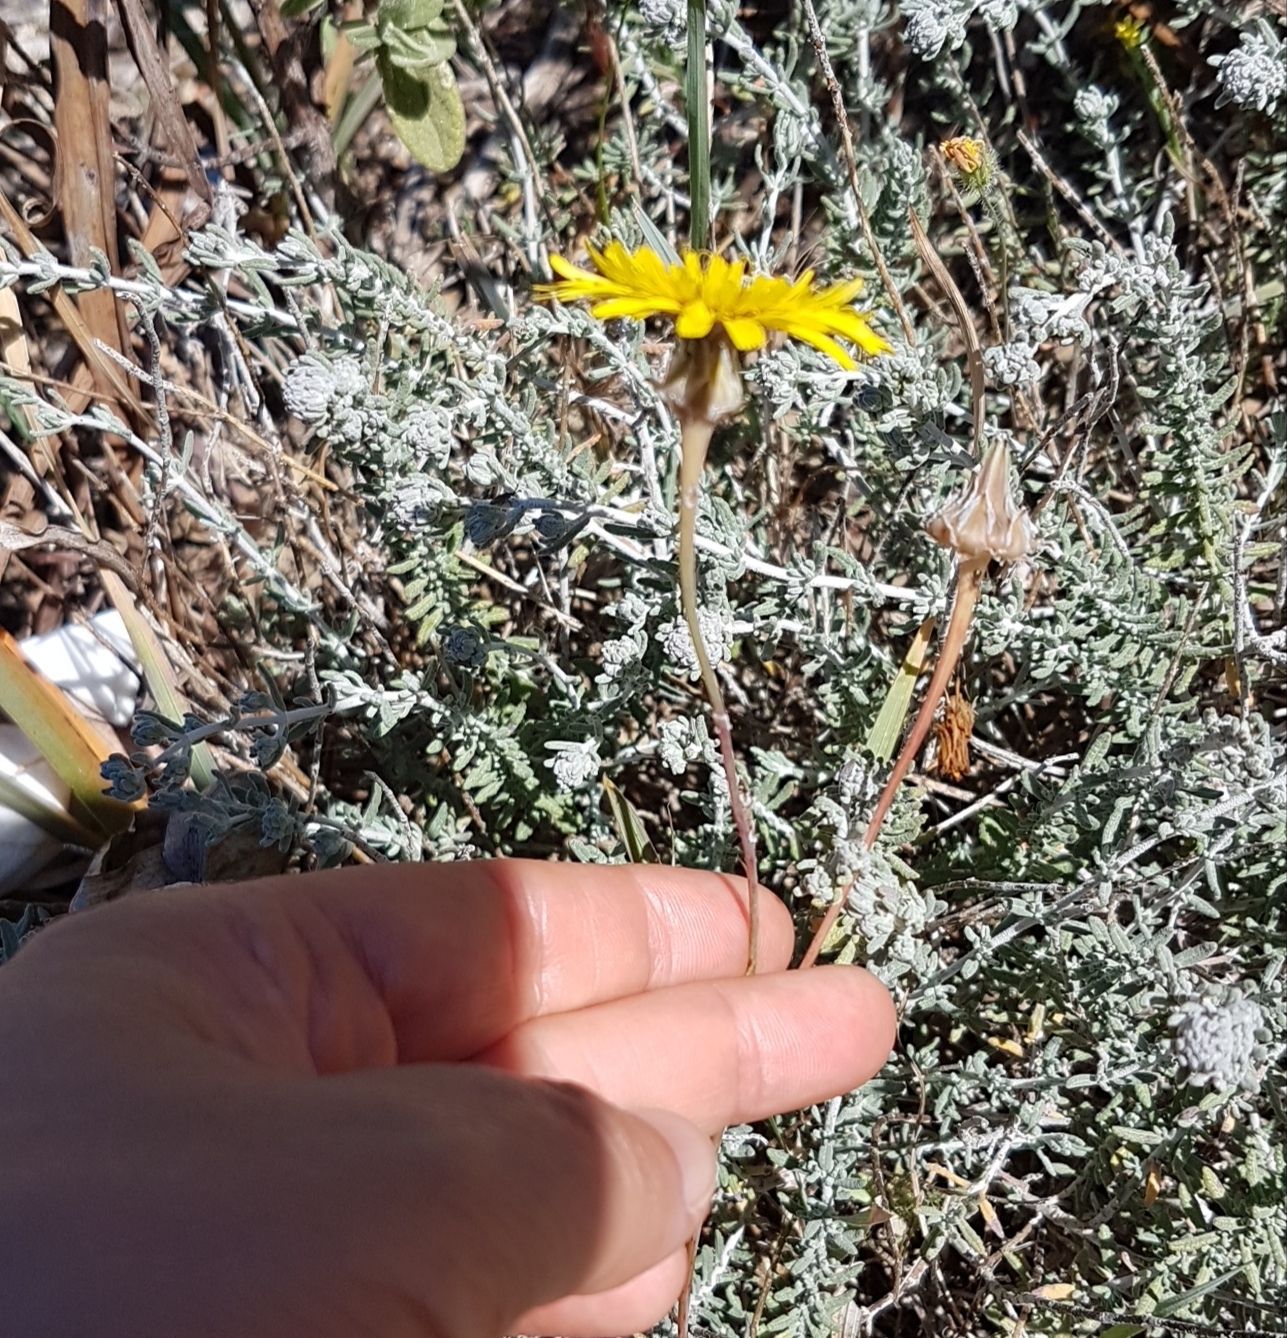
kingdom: Plantae
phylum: Tracheophyta
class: Magnoliopsida
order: Asterales
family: Asteraceae
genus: Reichardia
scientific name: Reichardia tingitana
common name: Reichardia
